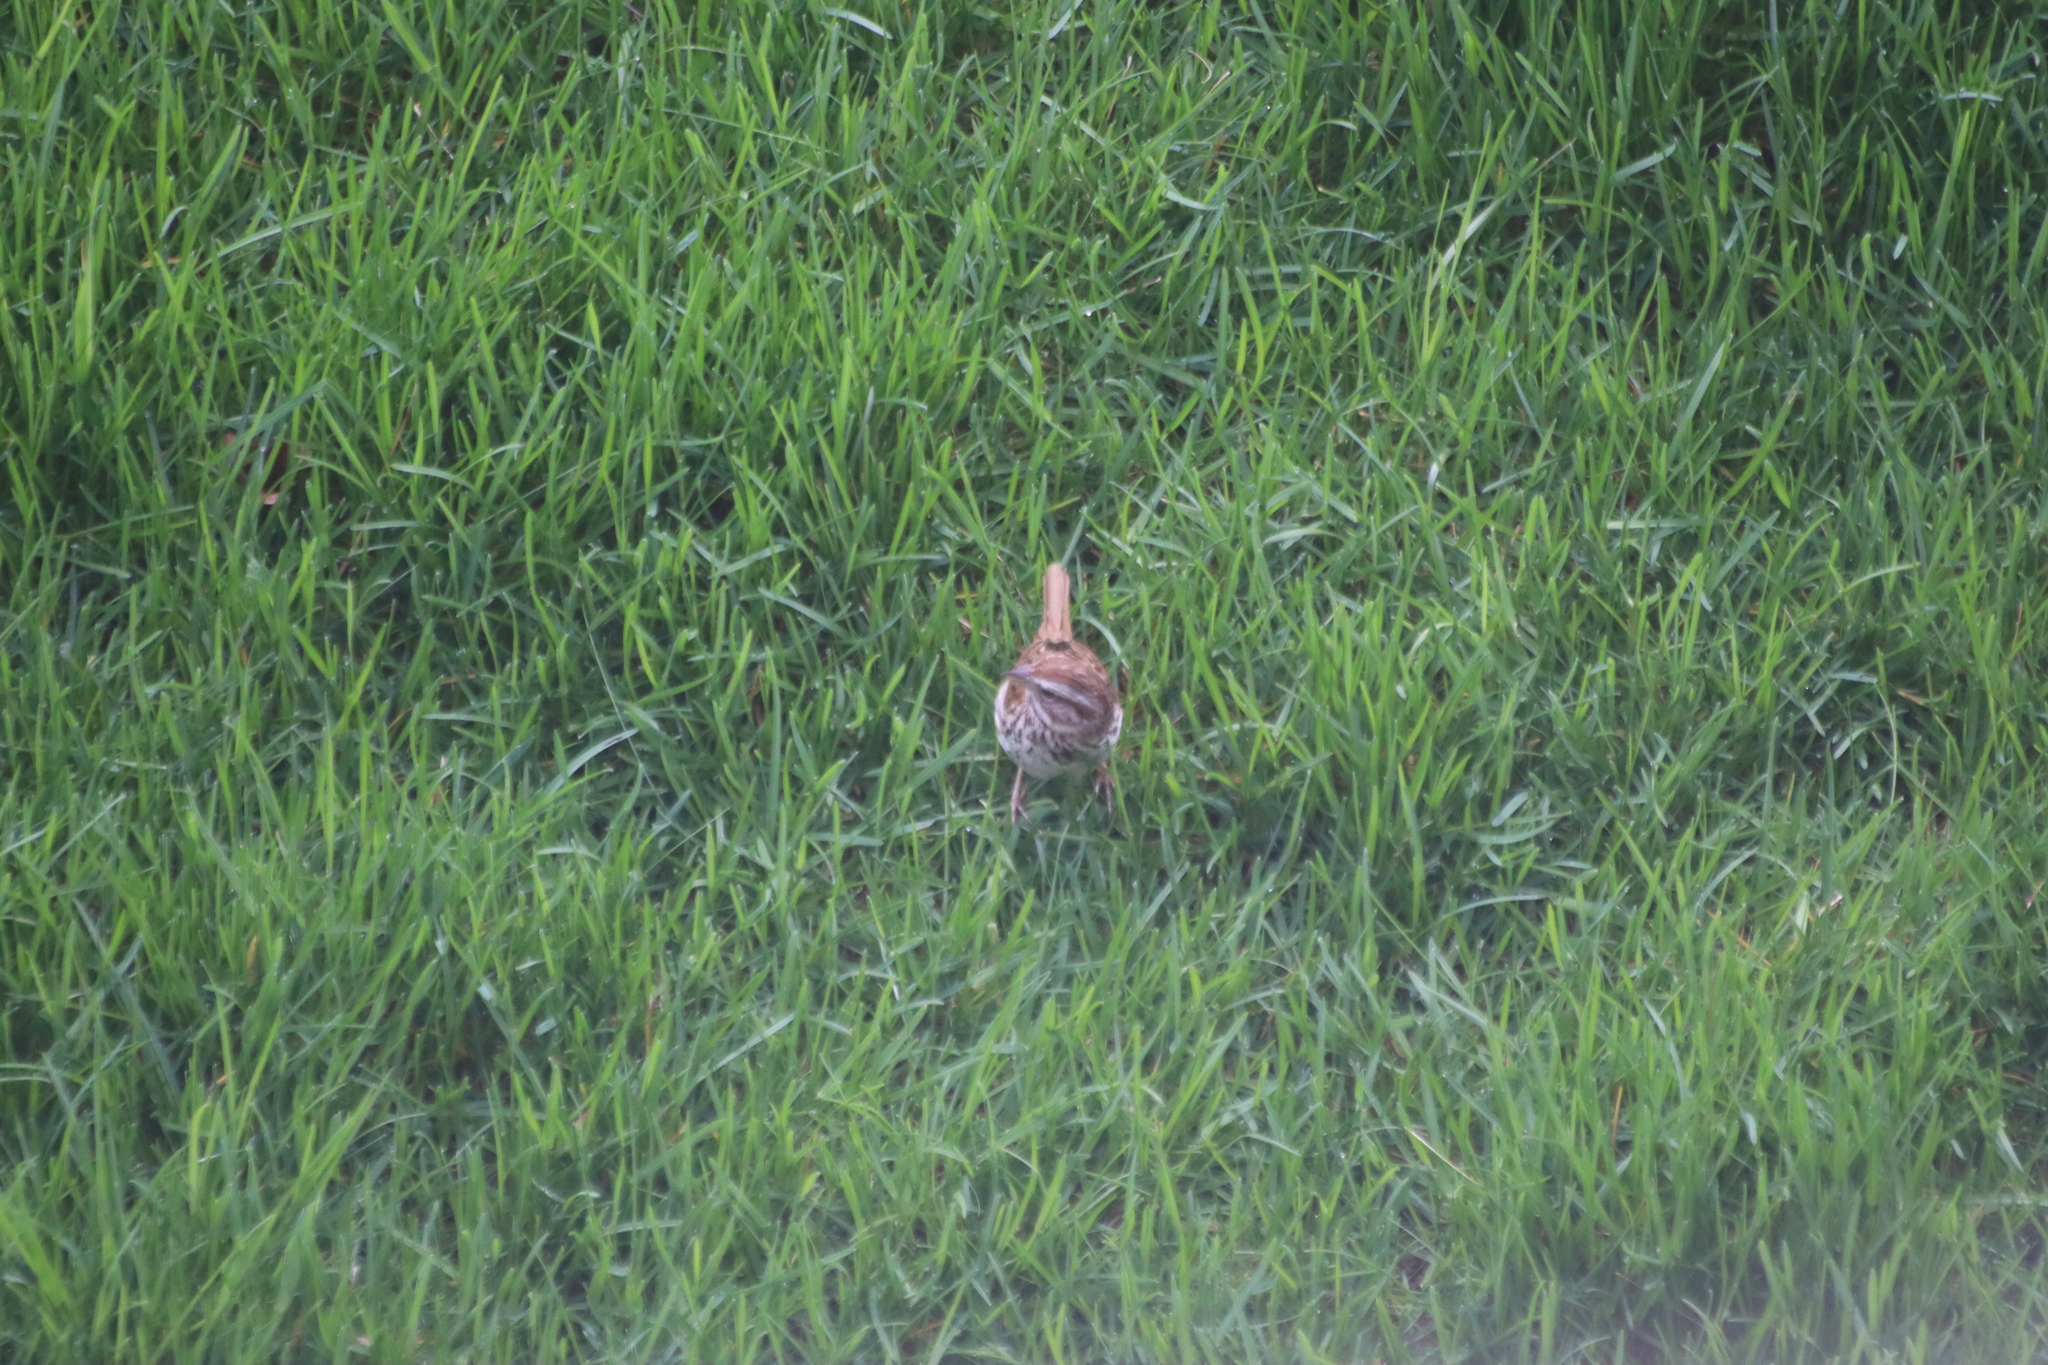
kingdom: Animalia
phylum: Chordata
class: Aves
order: Passeriformes
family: Passerellidae
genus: Melospiza
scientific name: Melospiza melodia
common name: Song sparrow
